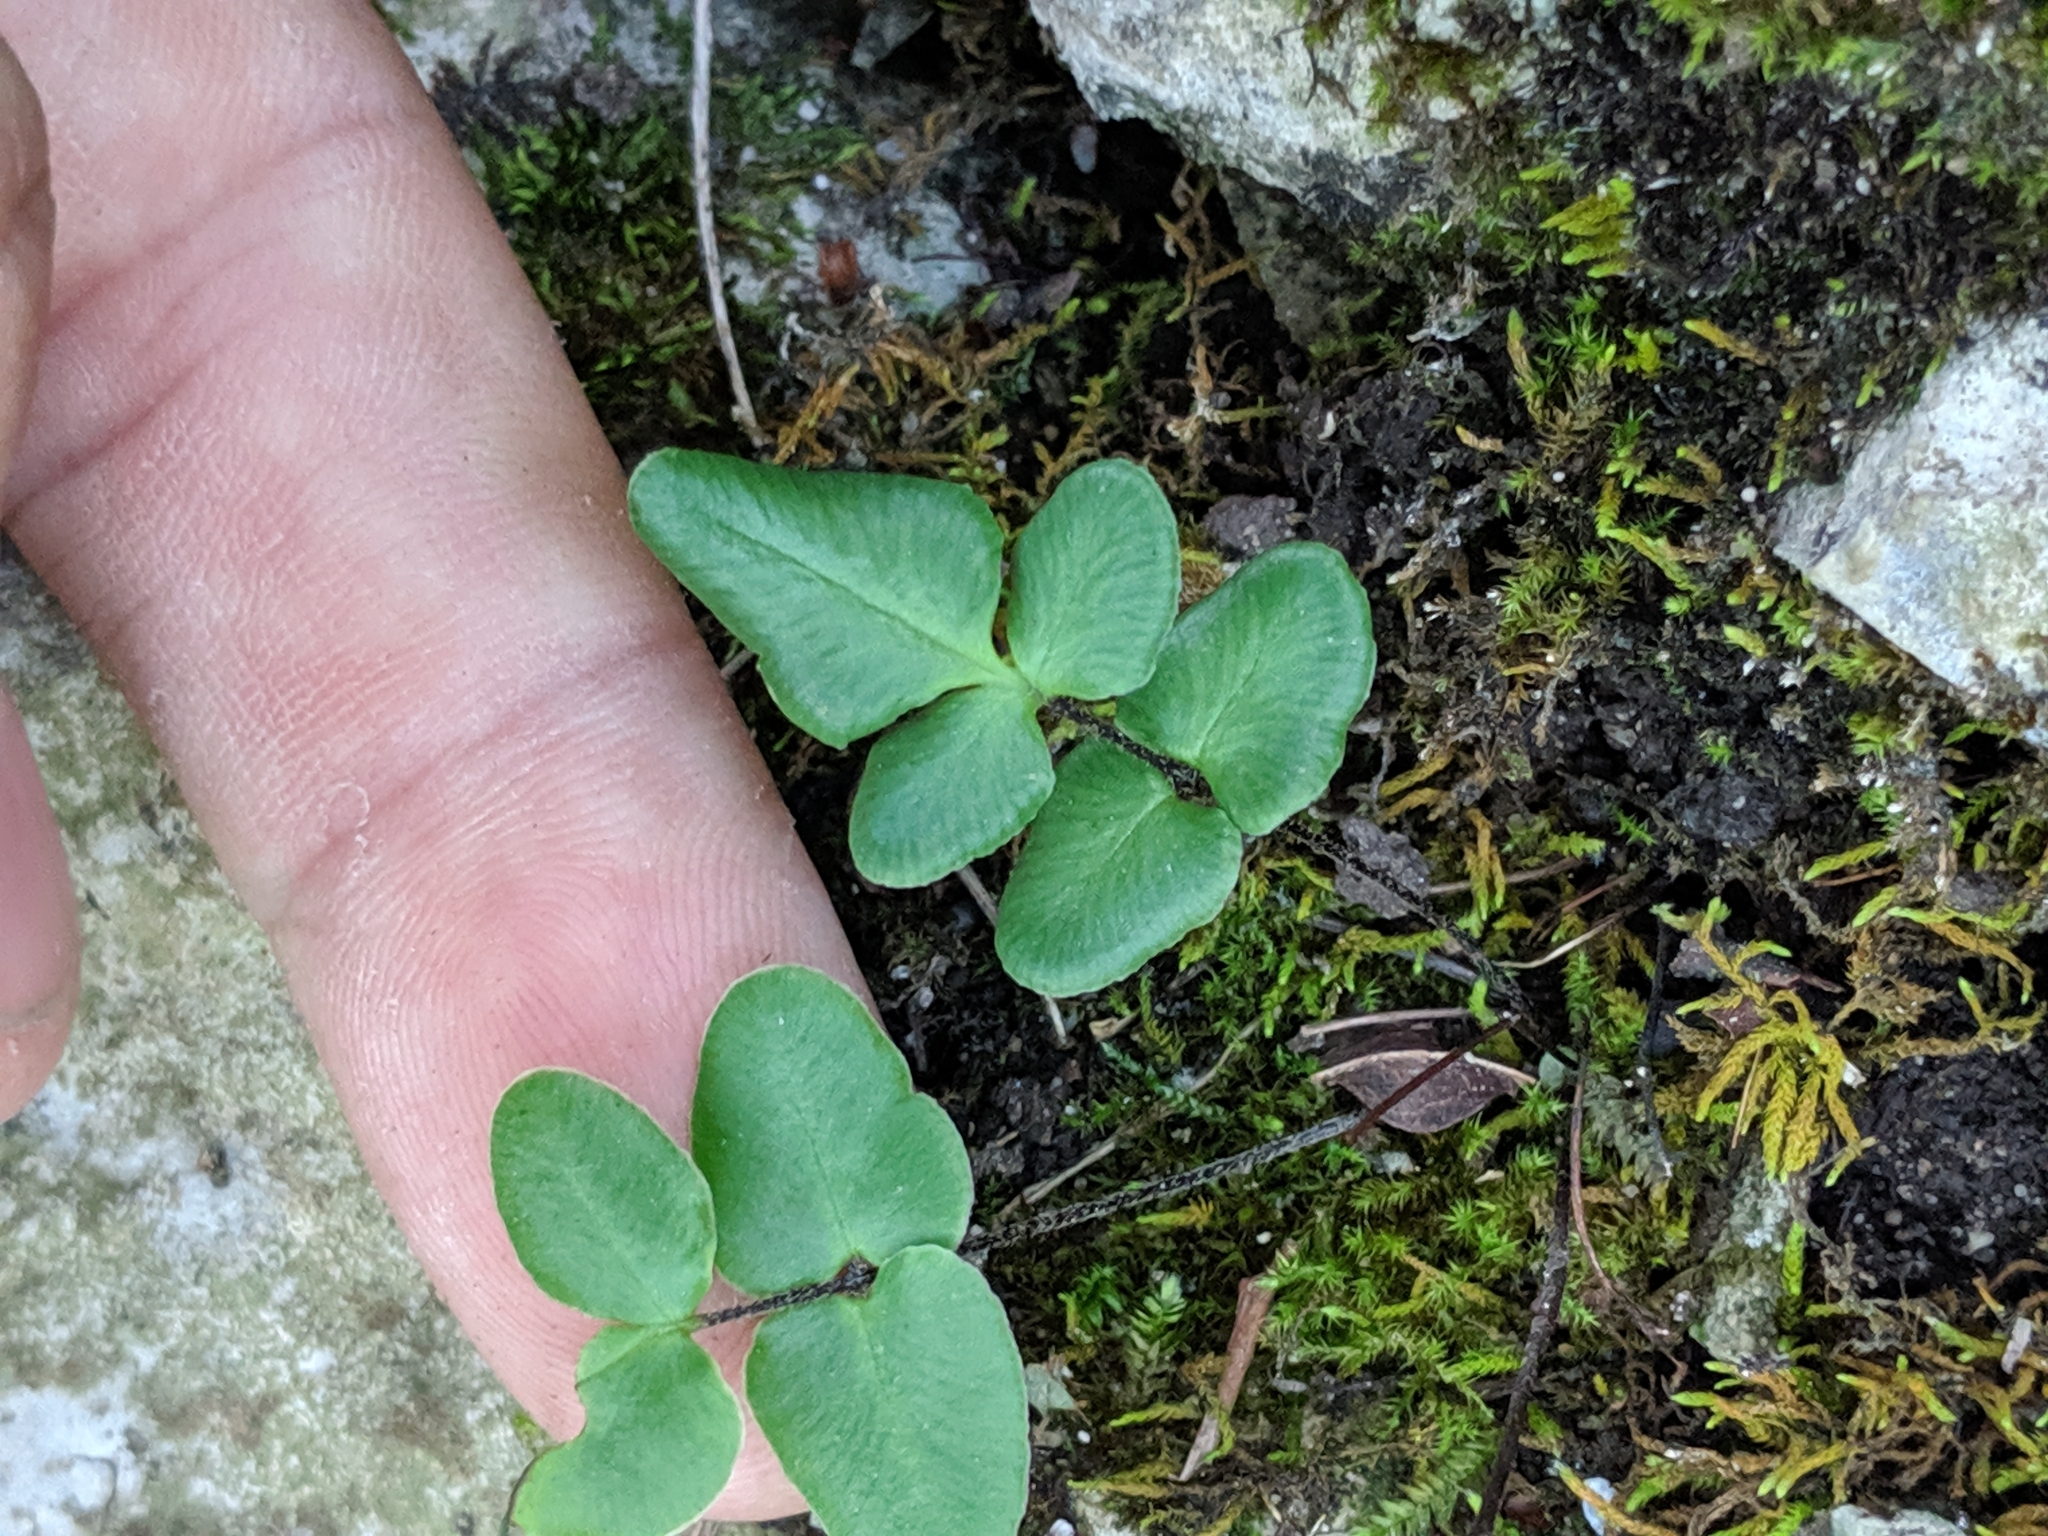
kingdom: Plantae
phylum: Tracheophyta
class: Polypodiopsida
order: Polypodiales
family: Pteridaceae
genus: Pellaea
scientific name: Pellaea atropurpurea
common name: Hairy cliffbrake
